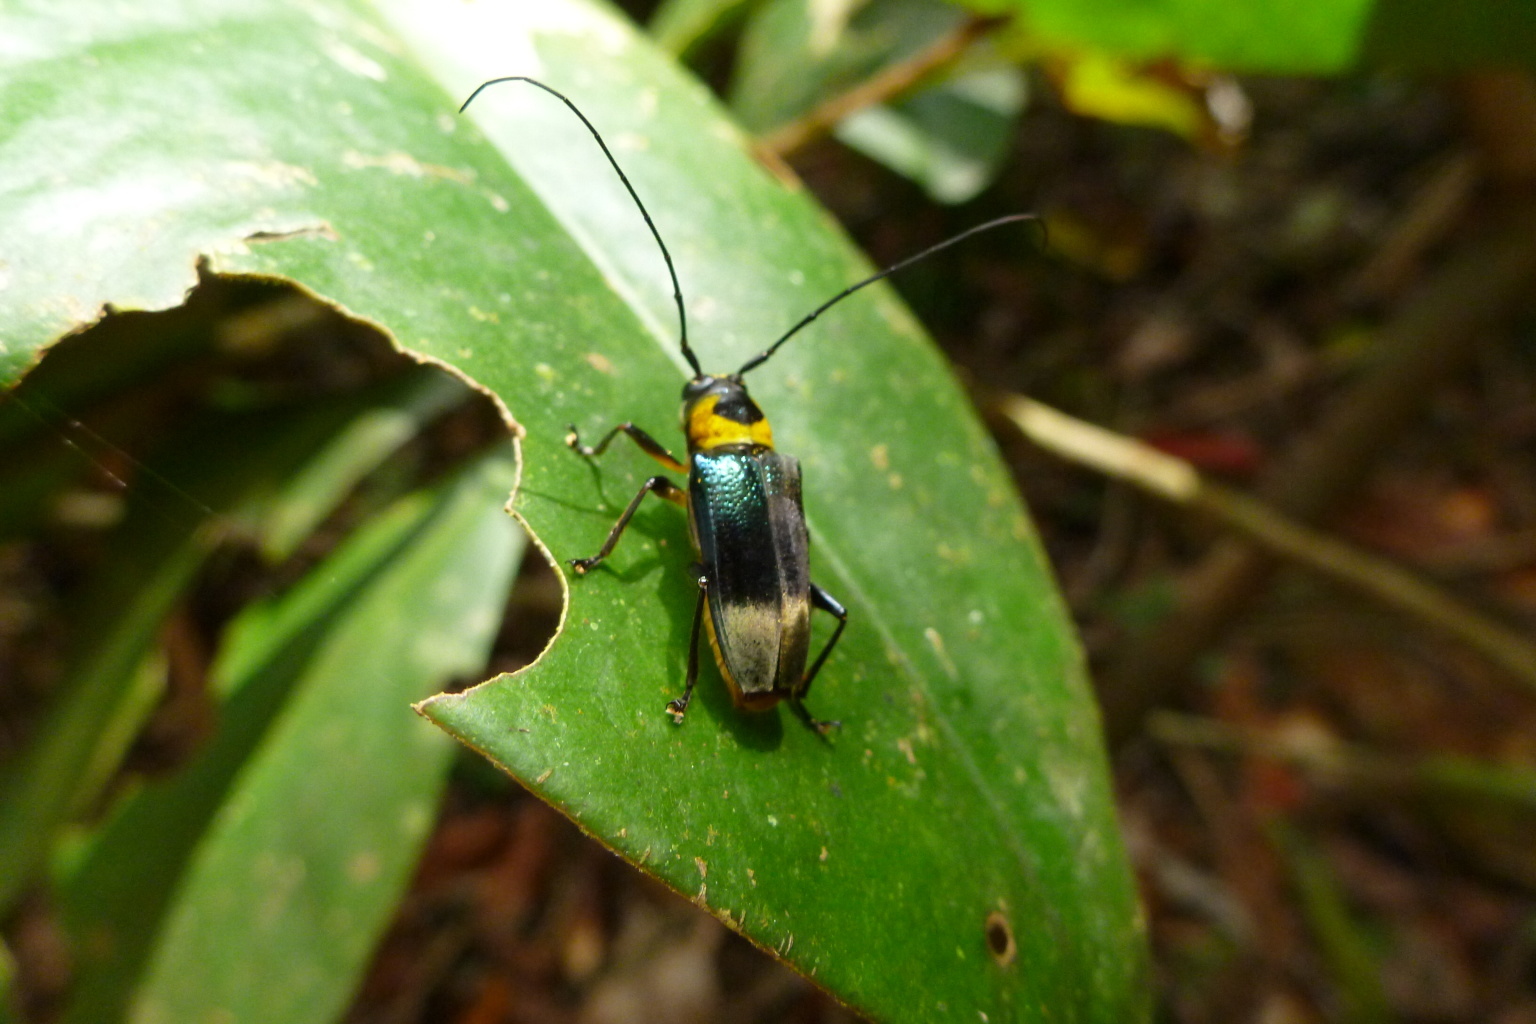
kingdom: Animalia
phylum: Arthropoda
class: Insecta
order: Coleoptera
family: Cerambycidae
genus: Glenea
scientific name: Glenea lefebvrii
